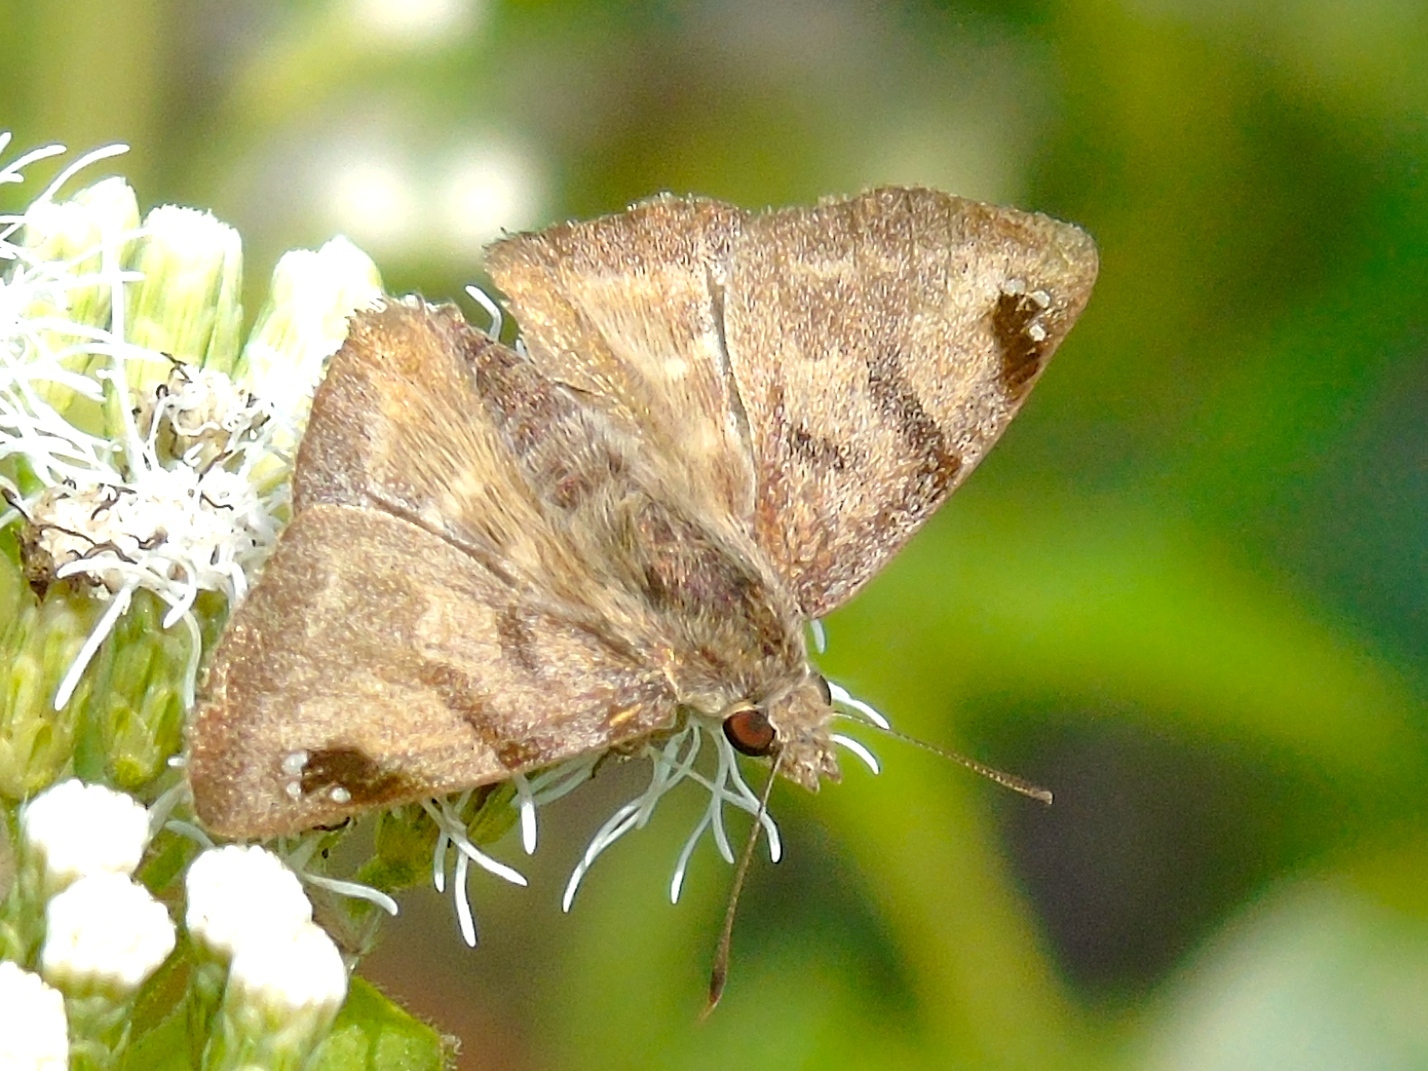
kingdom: Animalia
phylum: Arthropoda
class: Insecta
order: Lepidoptera
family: Hesperiidae
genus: Arteurotia
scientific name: Arteurotia tractipennis
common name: Starred skipper
